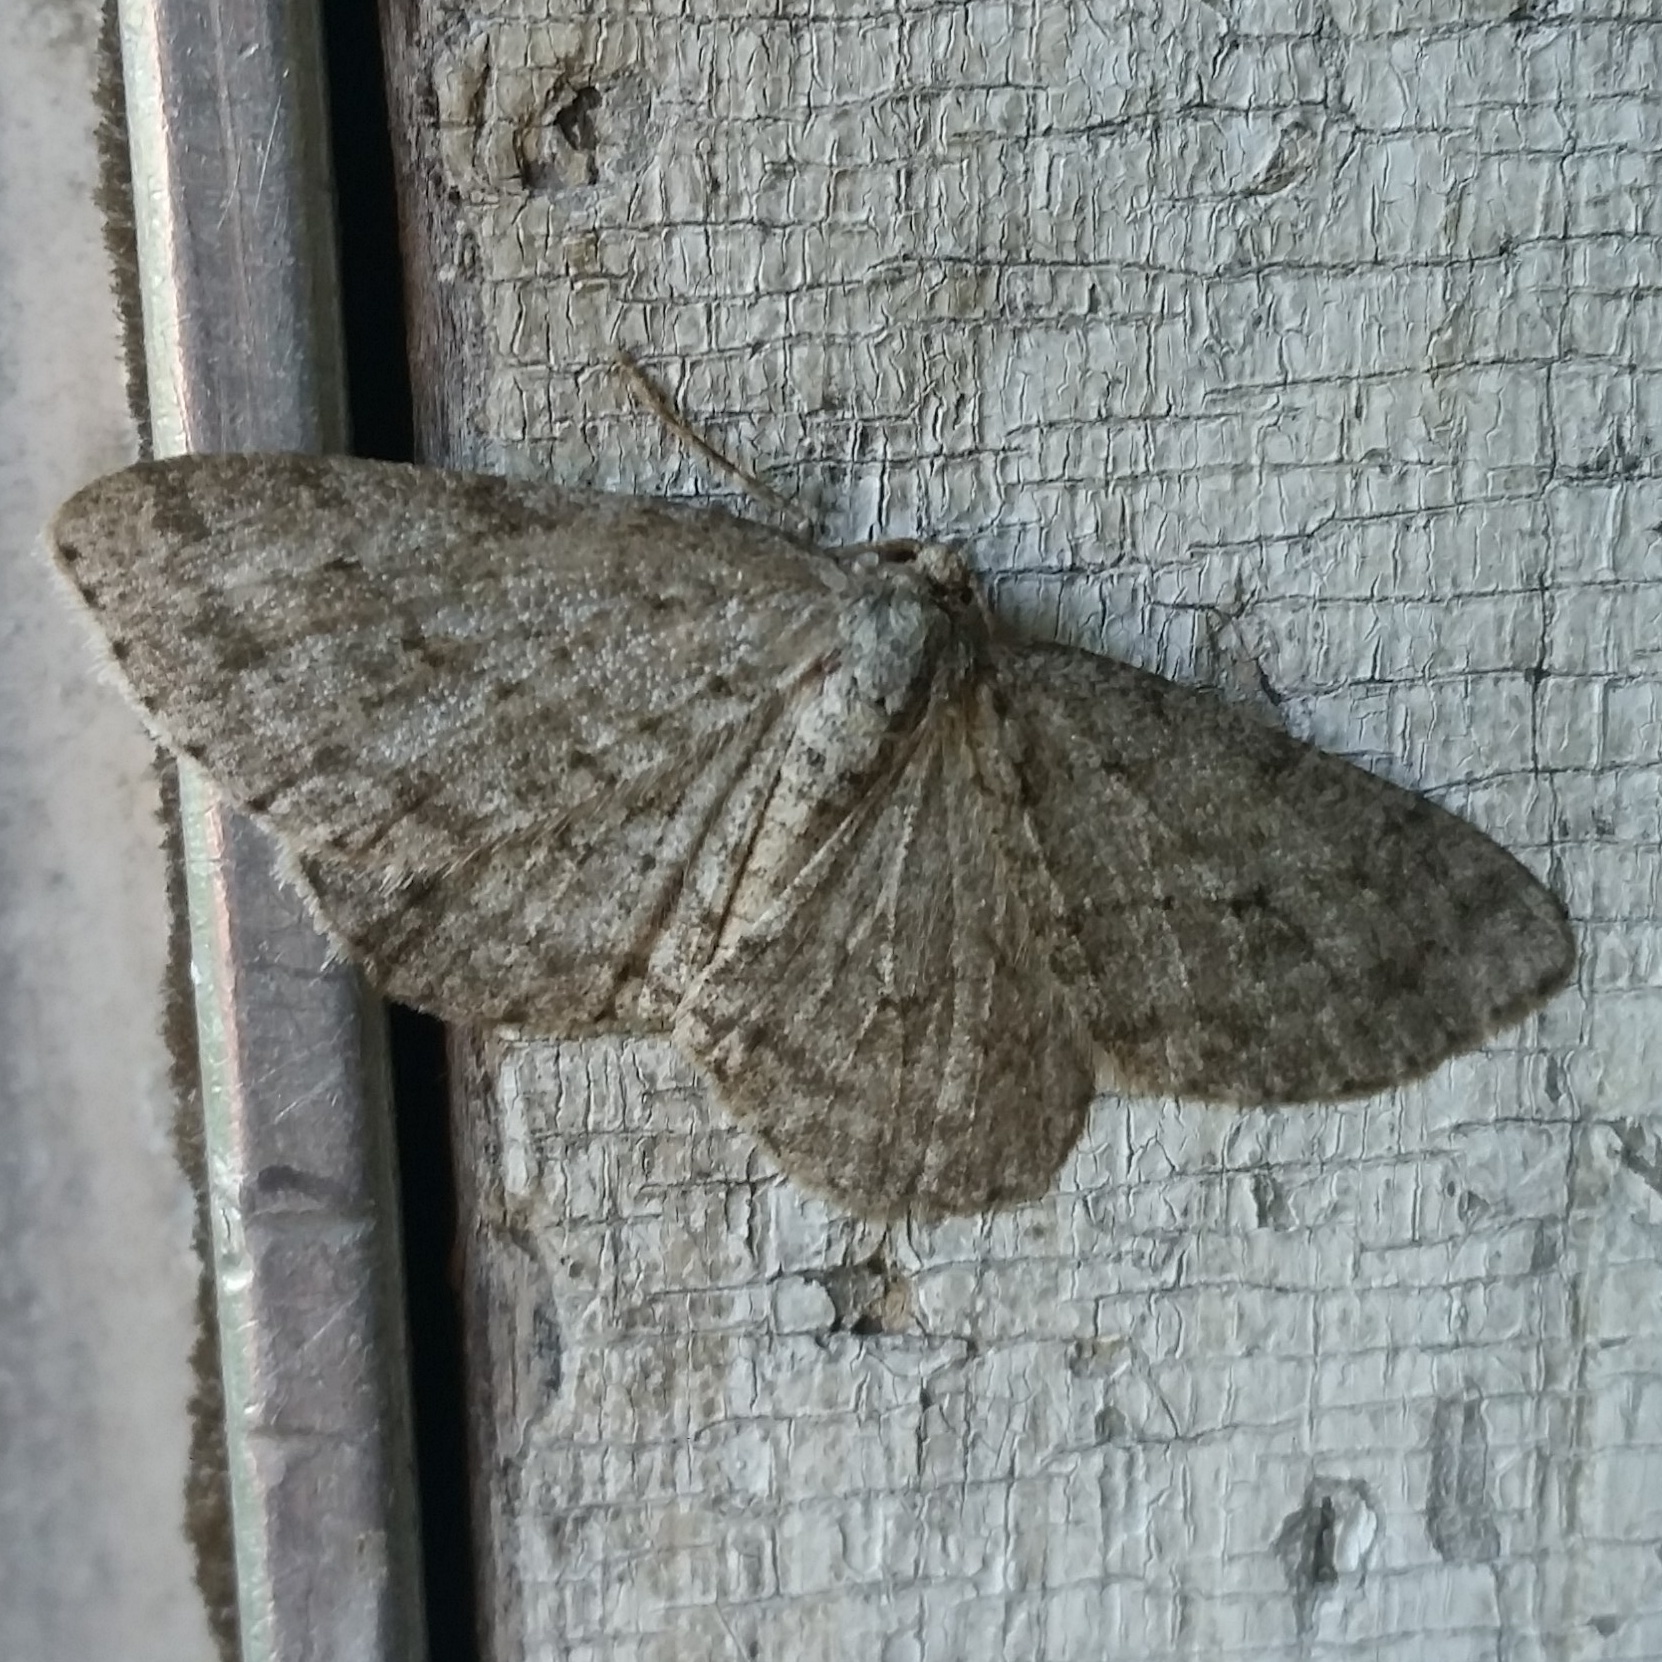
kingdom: Animalia
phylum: Arthropoda
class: Insecta
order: Lepidoptera
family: Geometridae
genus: Ectropis
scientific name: Ectropis crepuscularia
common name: Engrailed
